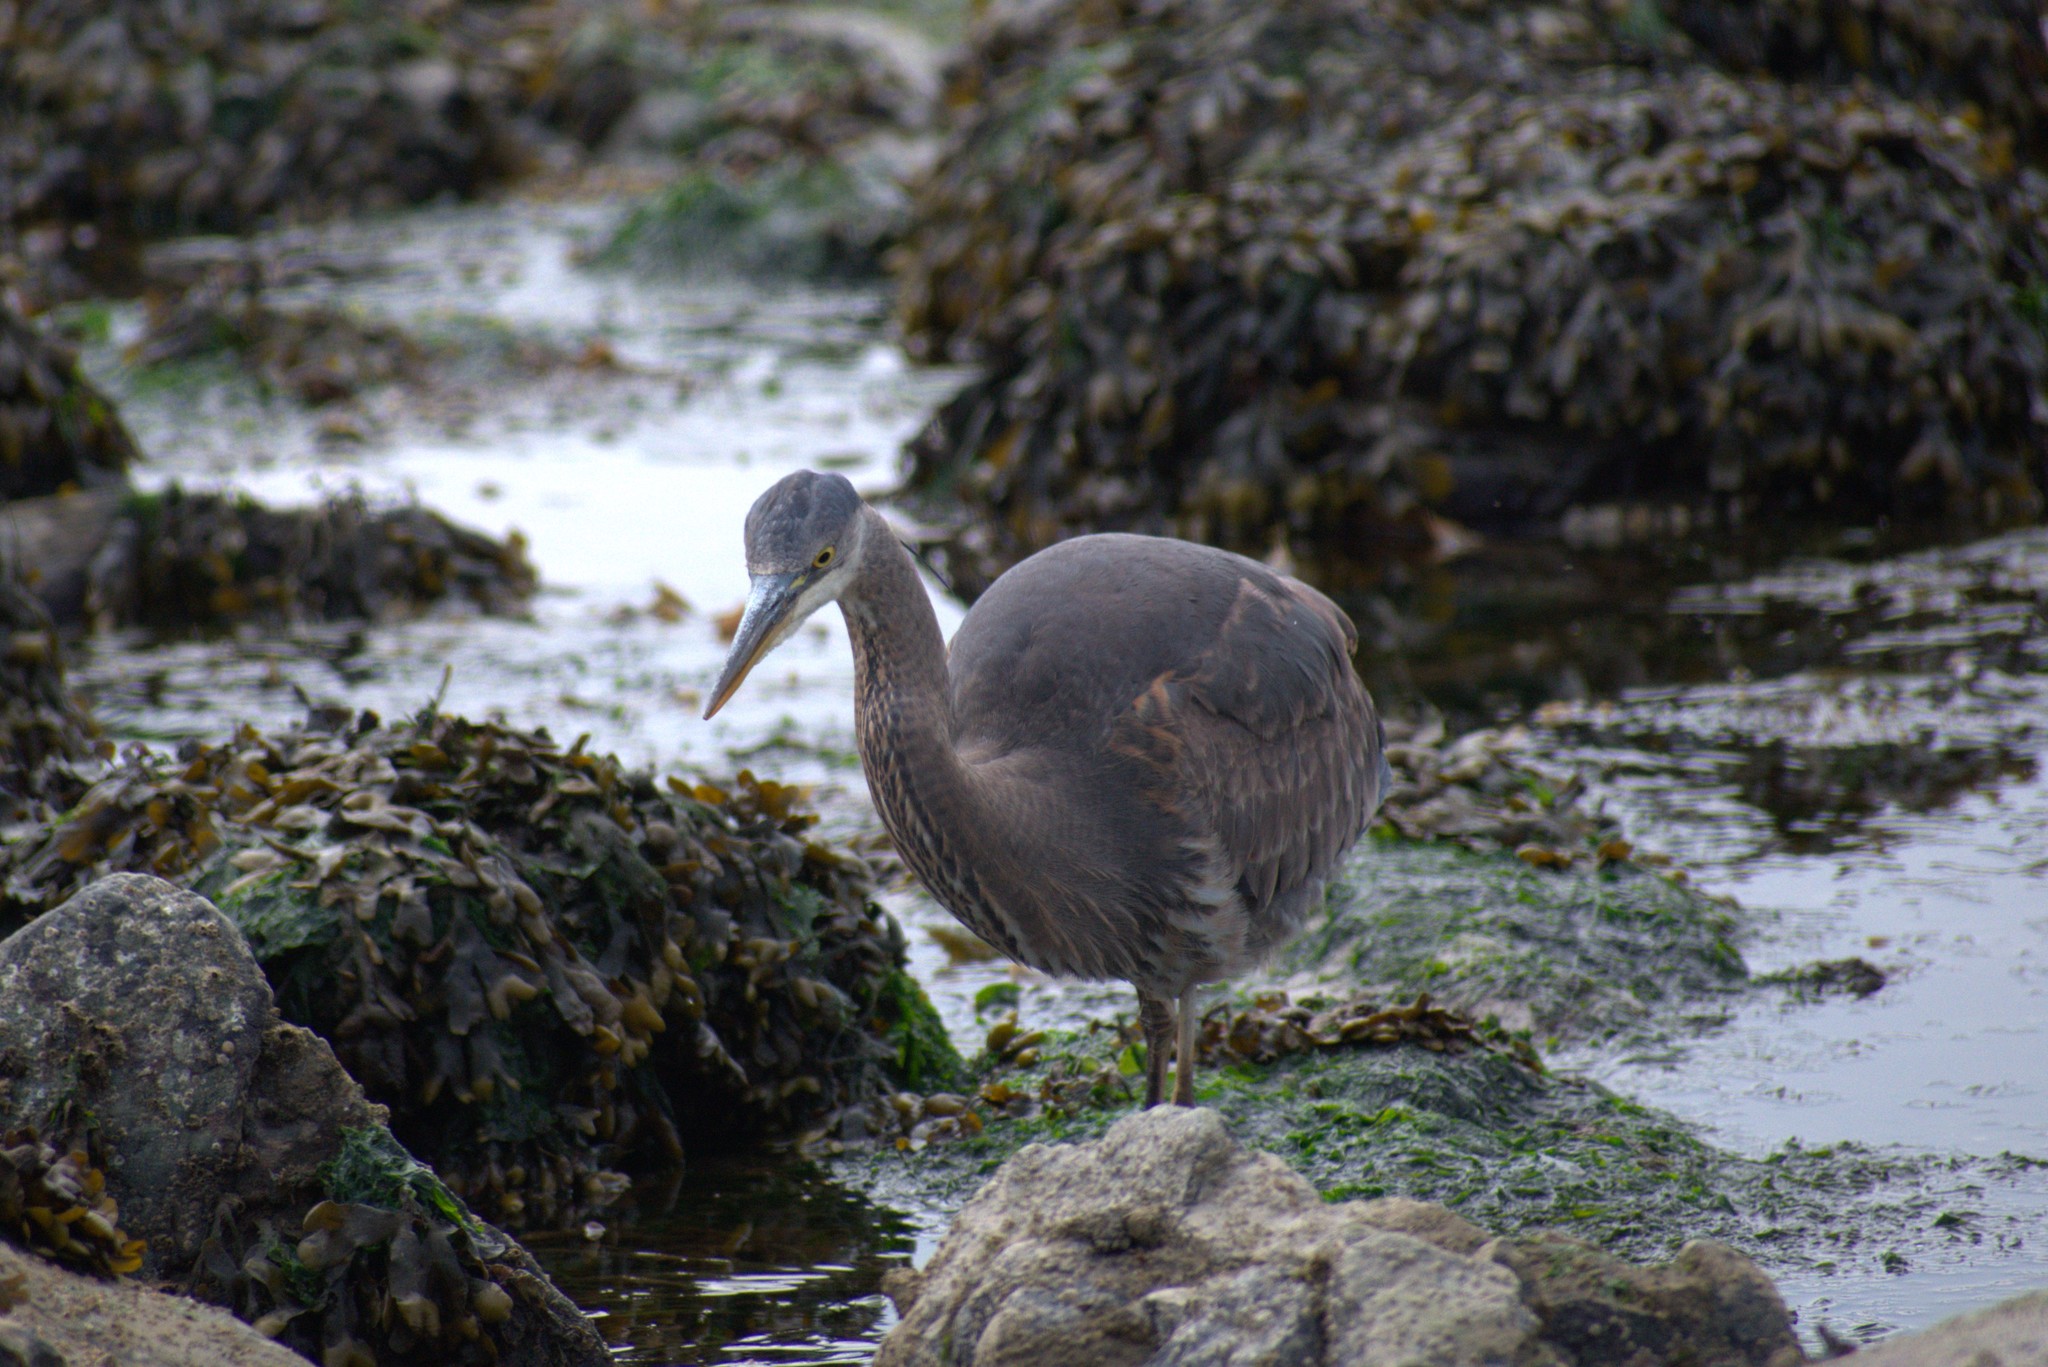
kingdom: Animalia
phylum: Chordata
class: Aves
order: Pelecaniformes
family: Ardeidae
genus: Ardea
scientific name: Ardea herodias
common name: Great blue heron
